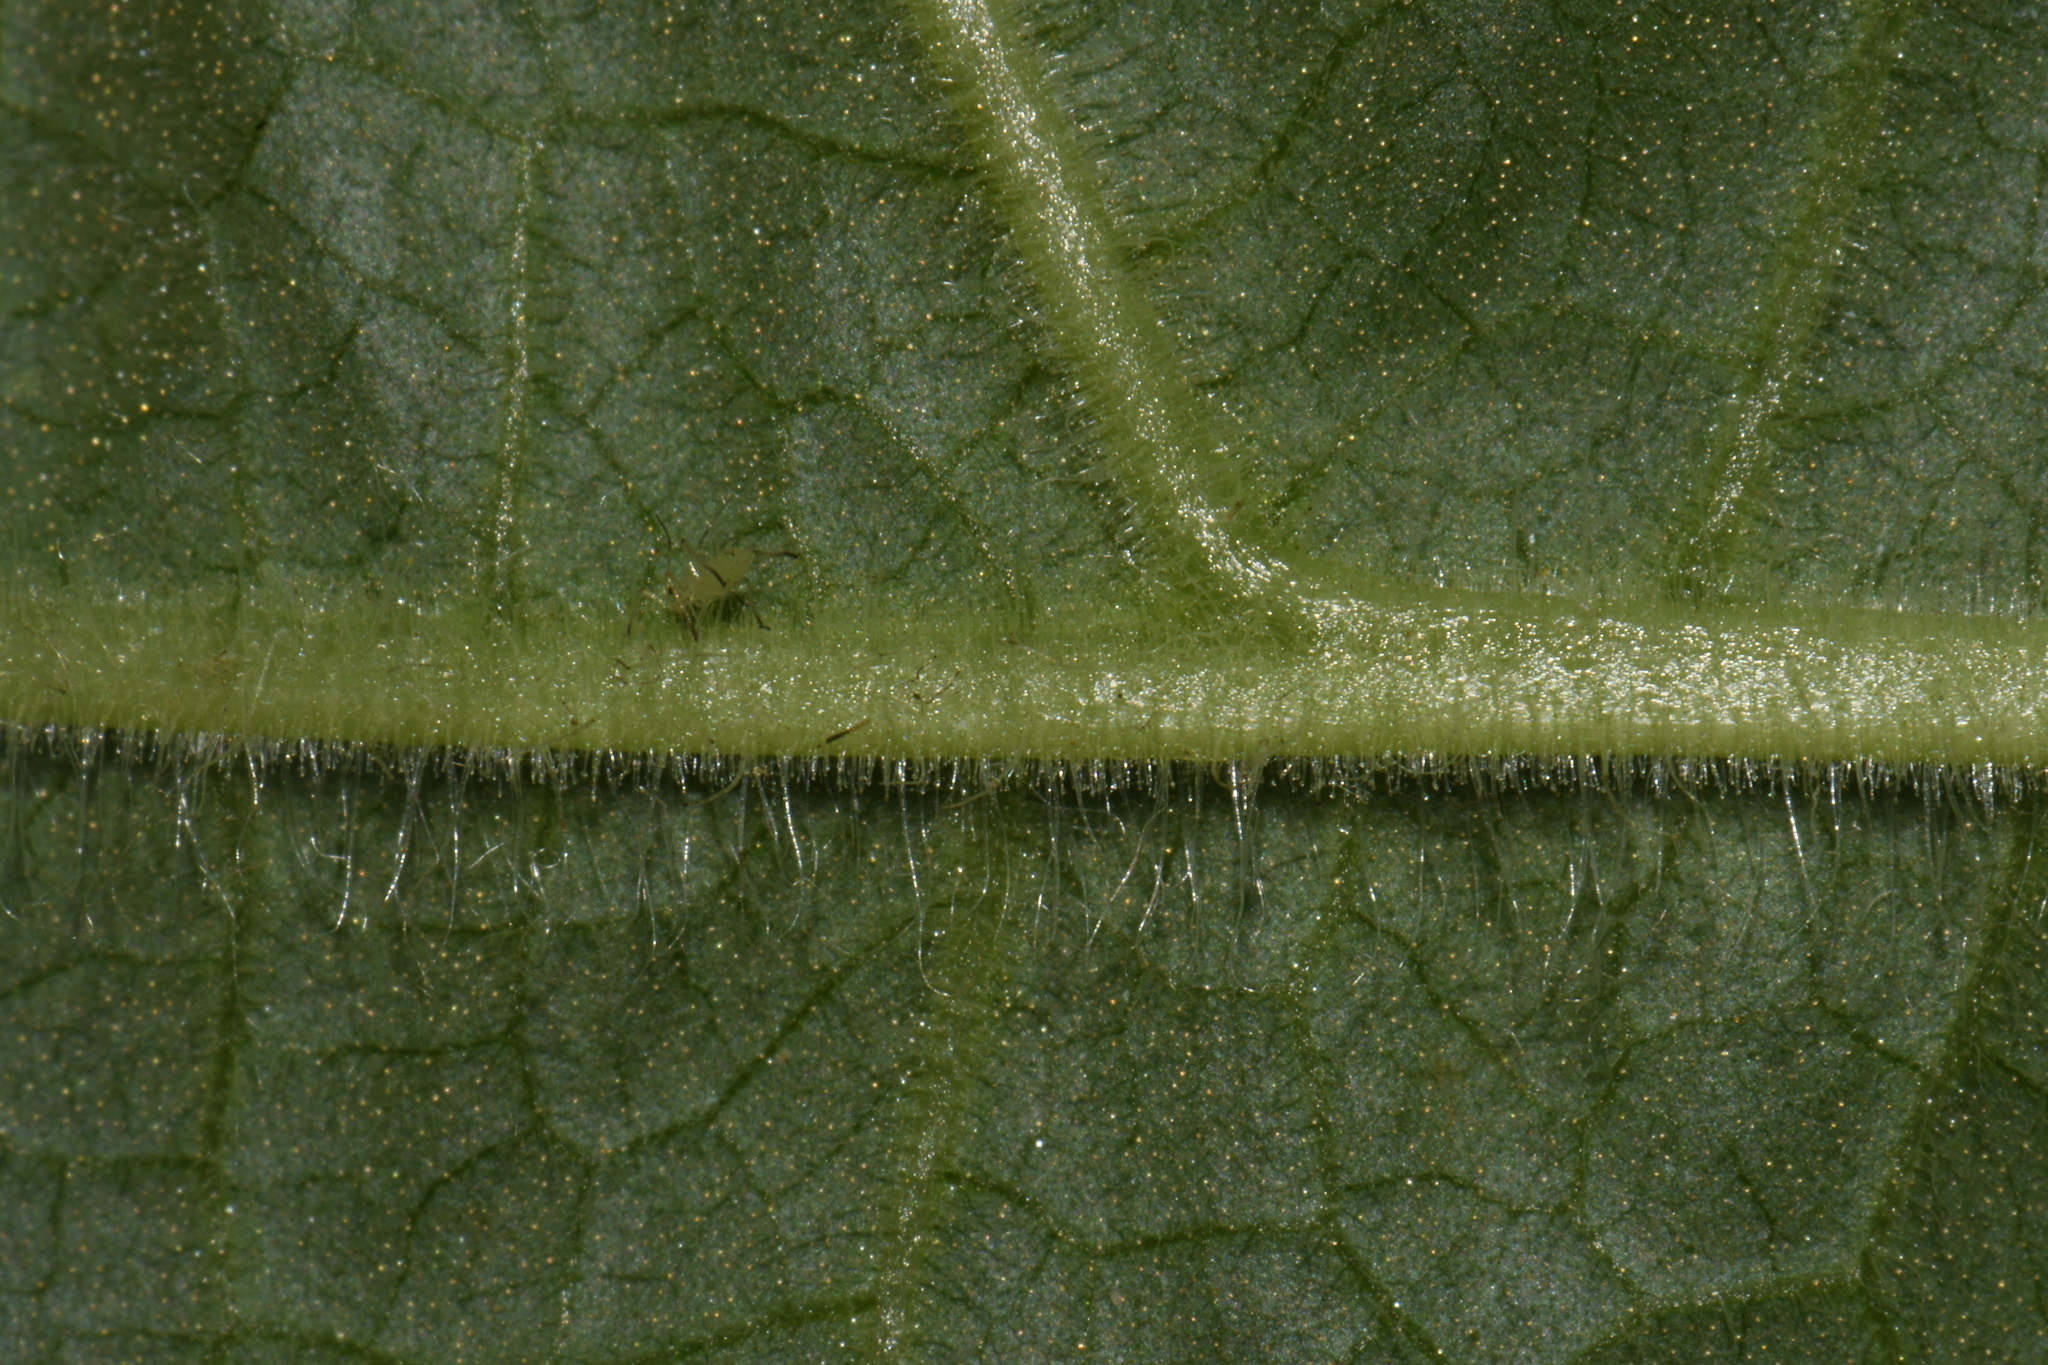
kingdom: Plantae
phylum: Tracheophyta
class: Magnoliopsida
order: Asterales
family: Asteraceae
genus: Polymnia
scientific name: Polymnia canadensis
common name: Pale-flowered leafcup
